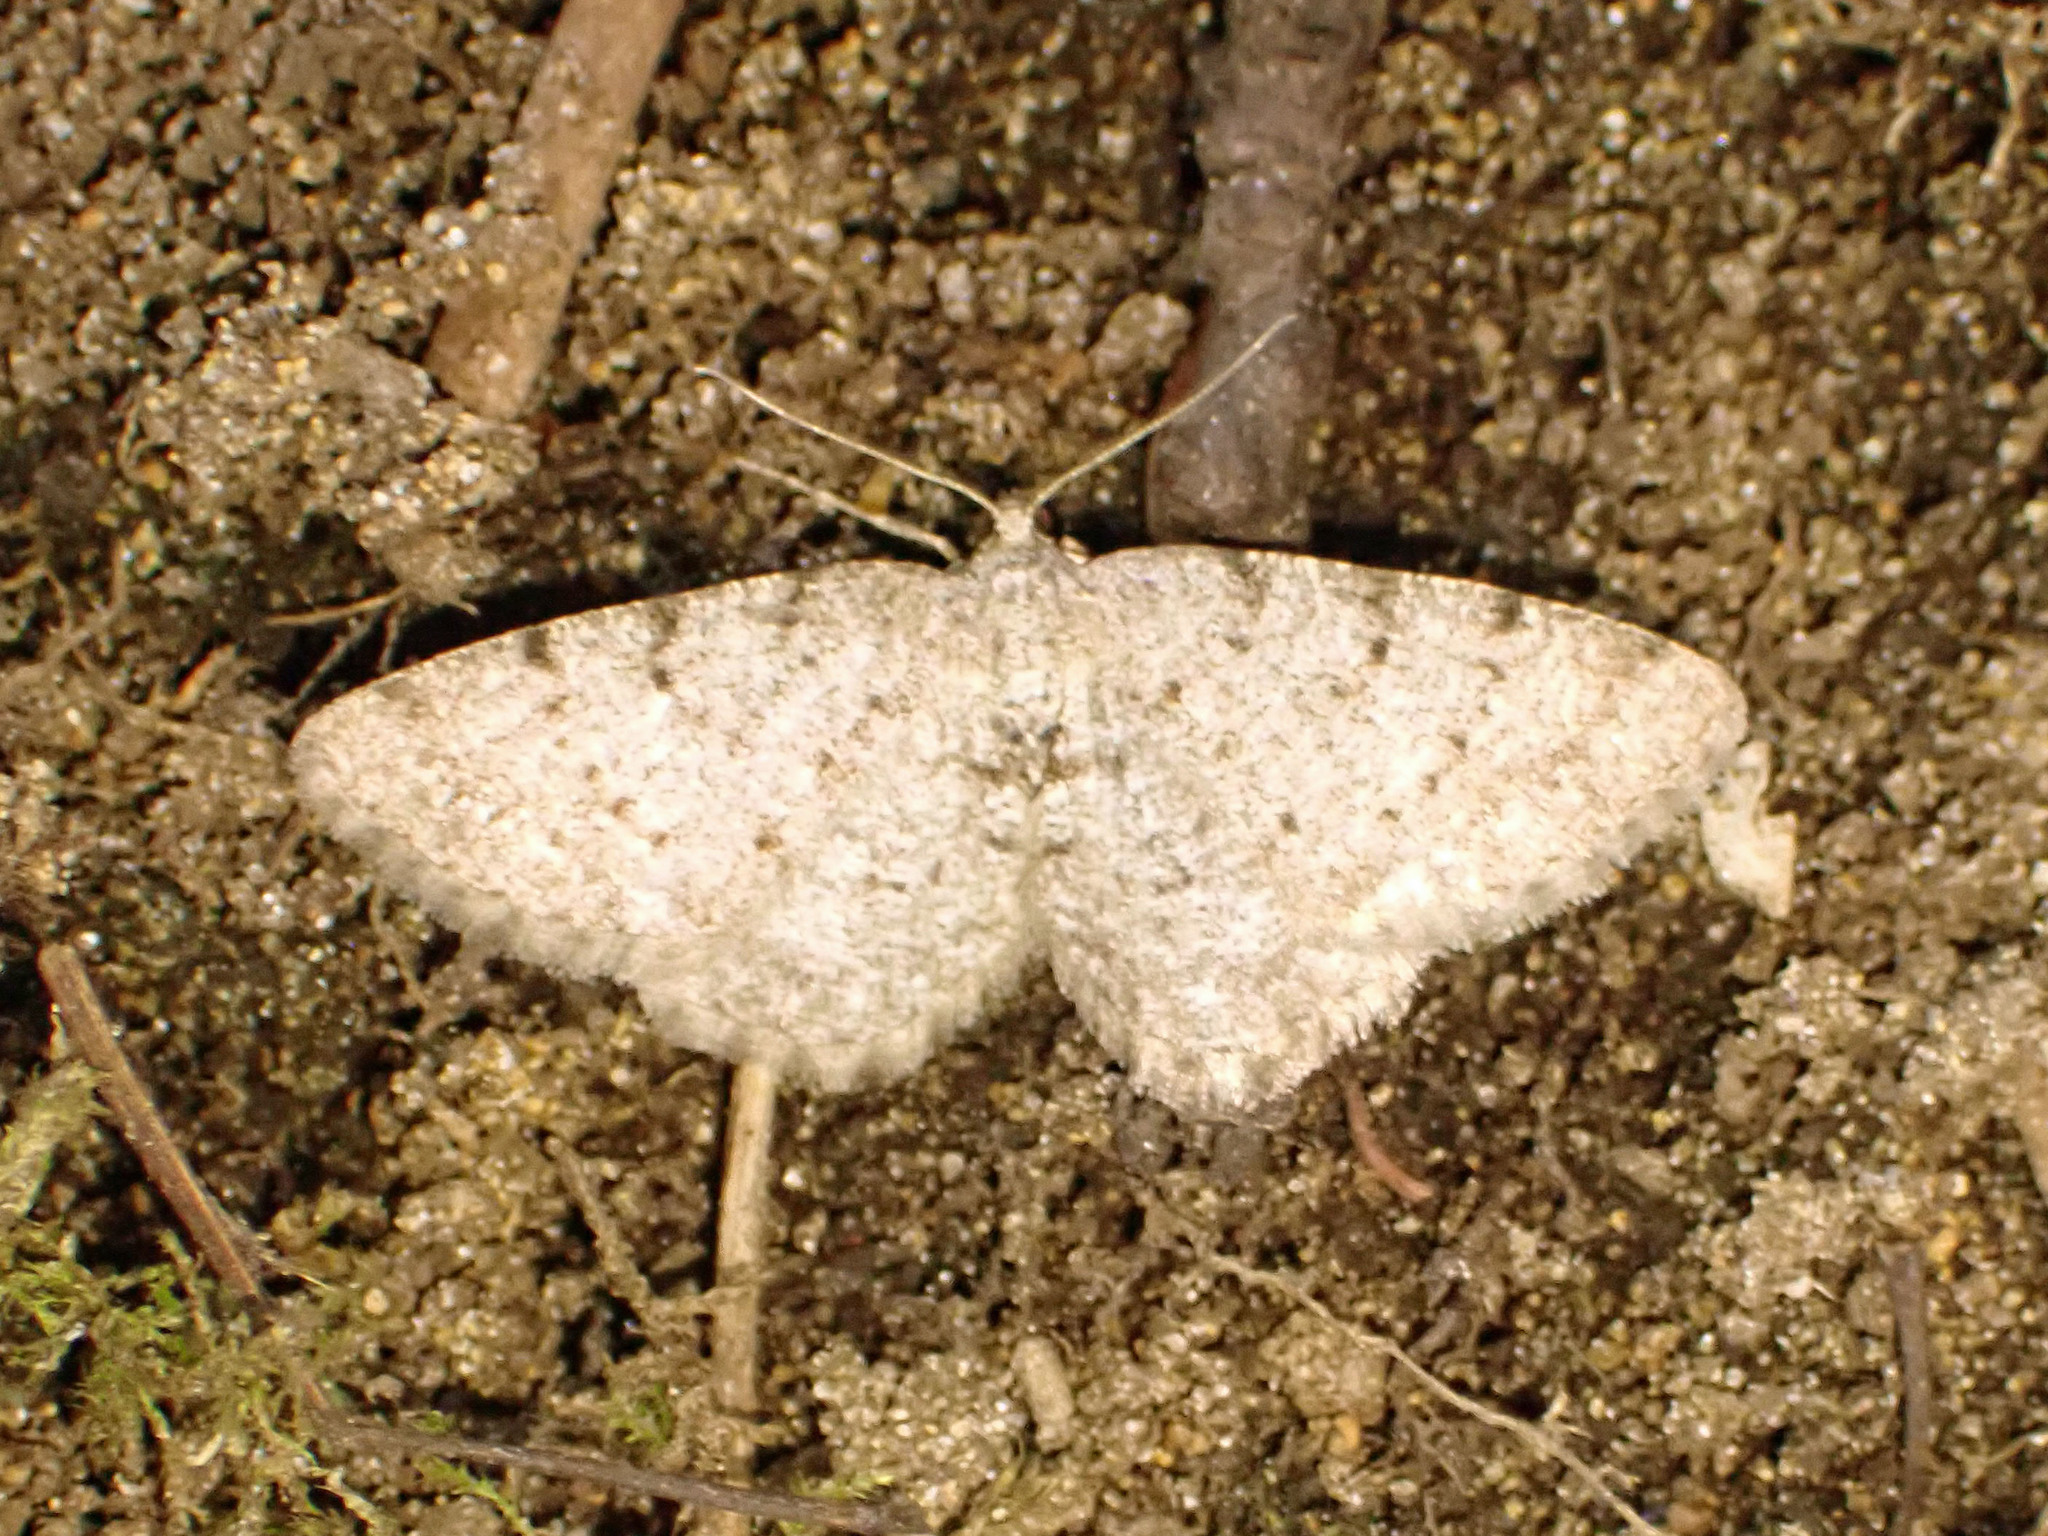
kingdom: Animalia
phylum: Arthropoda
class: Insecta
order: Lepidoptera
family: Geometridae
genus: Aethalura
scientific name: Aethalura intertexta
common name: Four-barred gray
